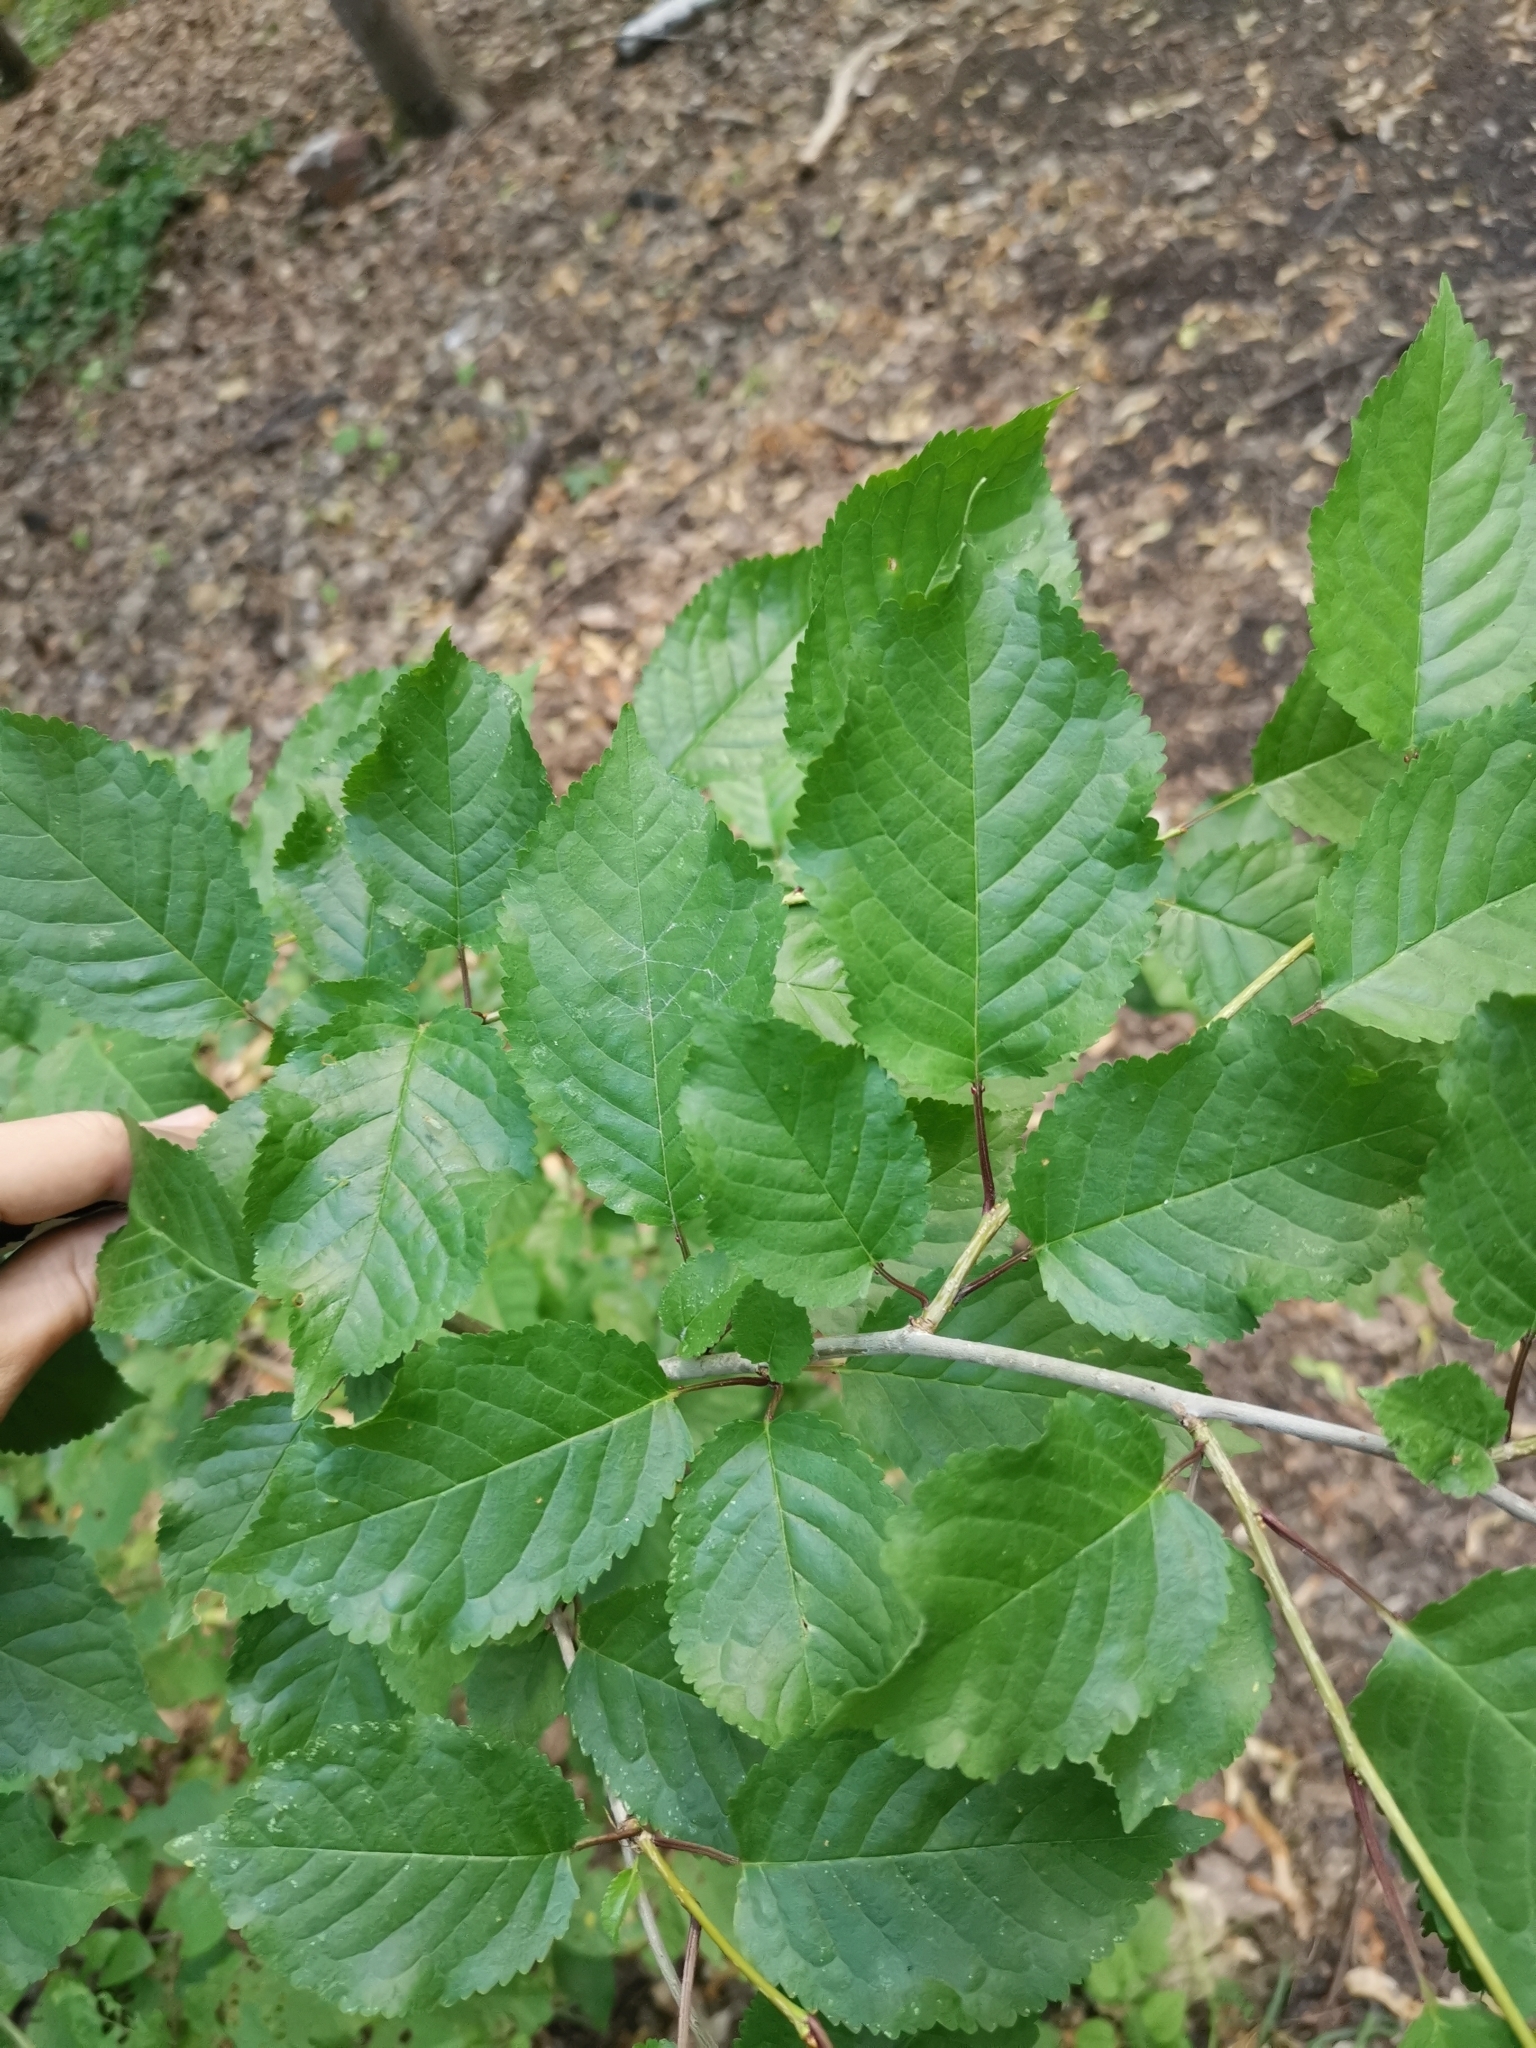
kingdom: Plantae
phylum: Tracheophyta
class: Magnoliopsida
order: Rosales
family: Rosaceae
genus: Prunus
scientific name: Prunus avium
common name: Sweet cherry
